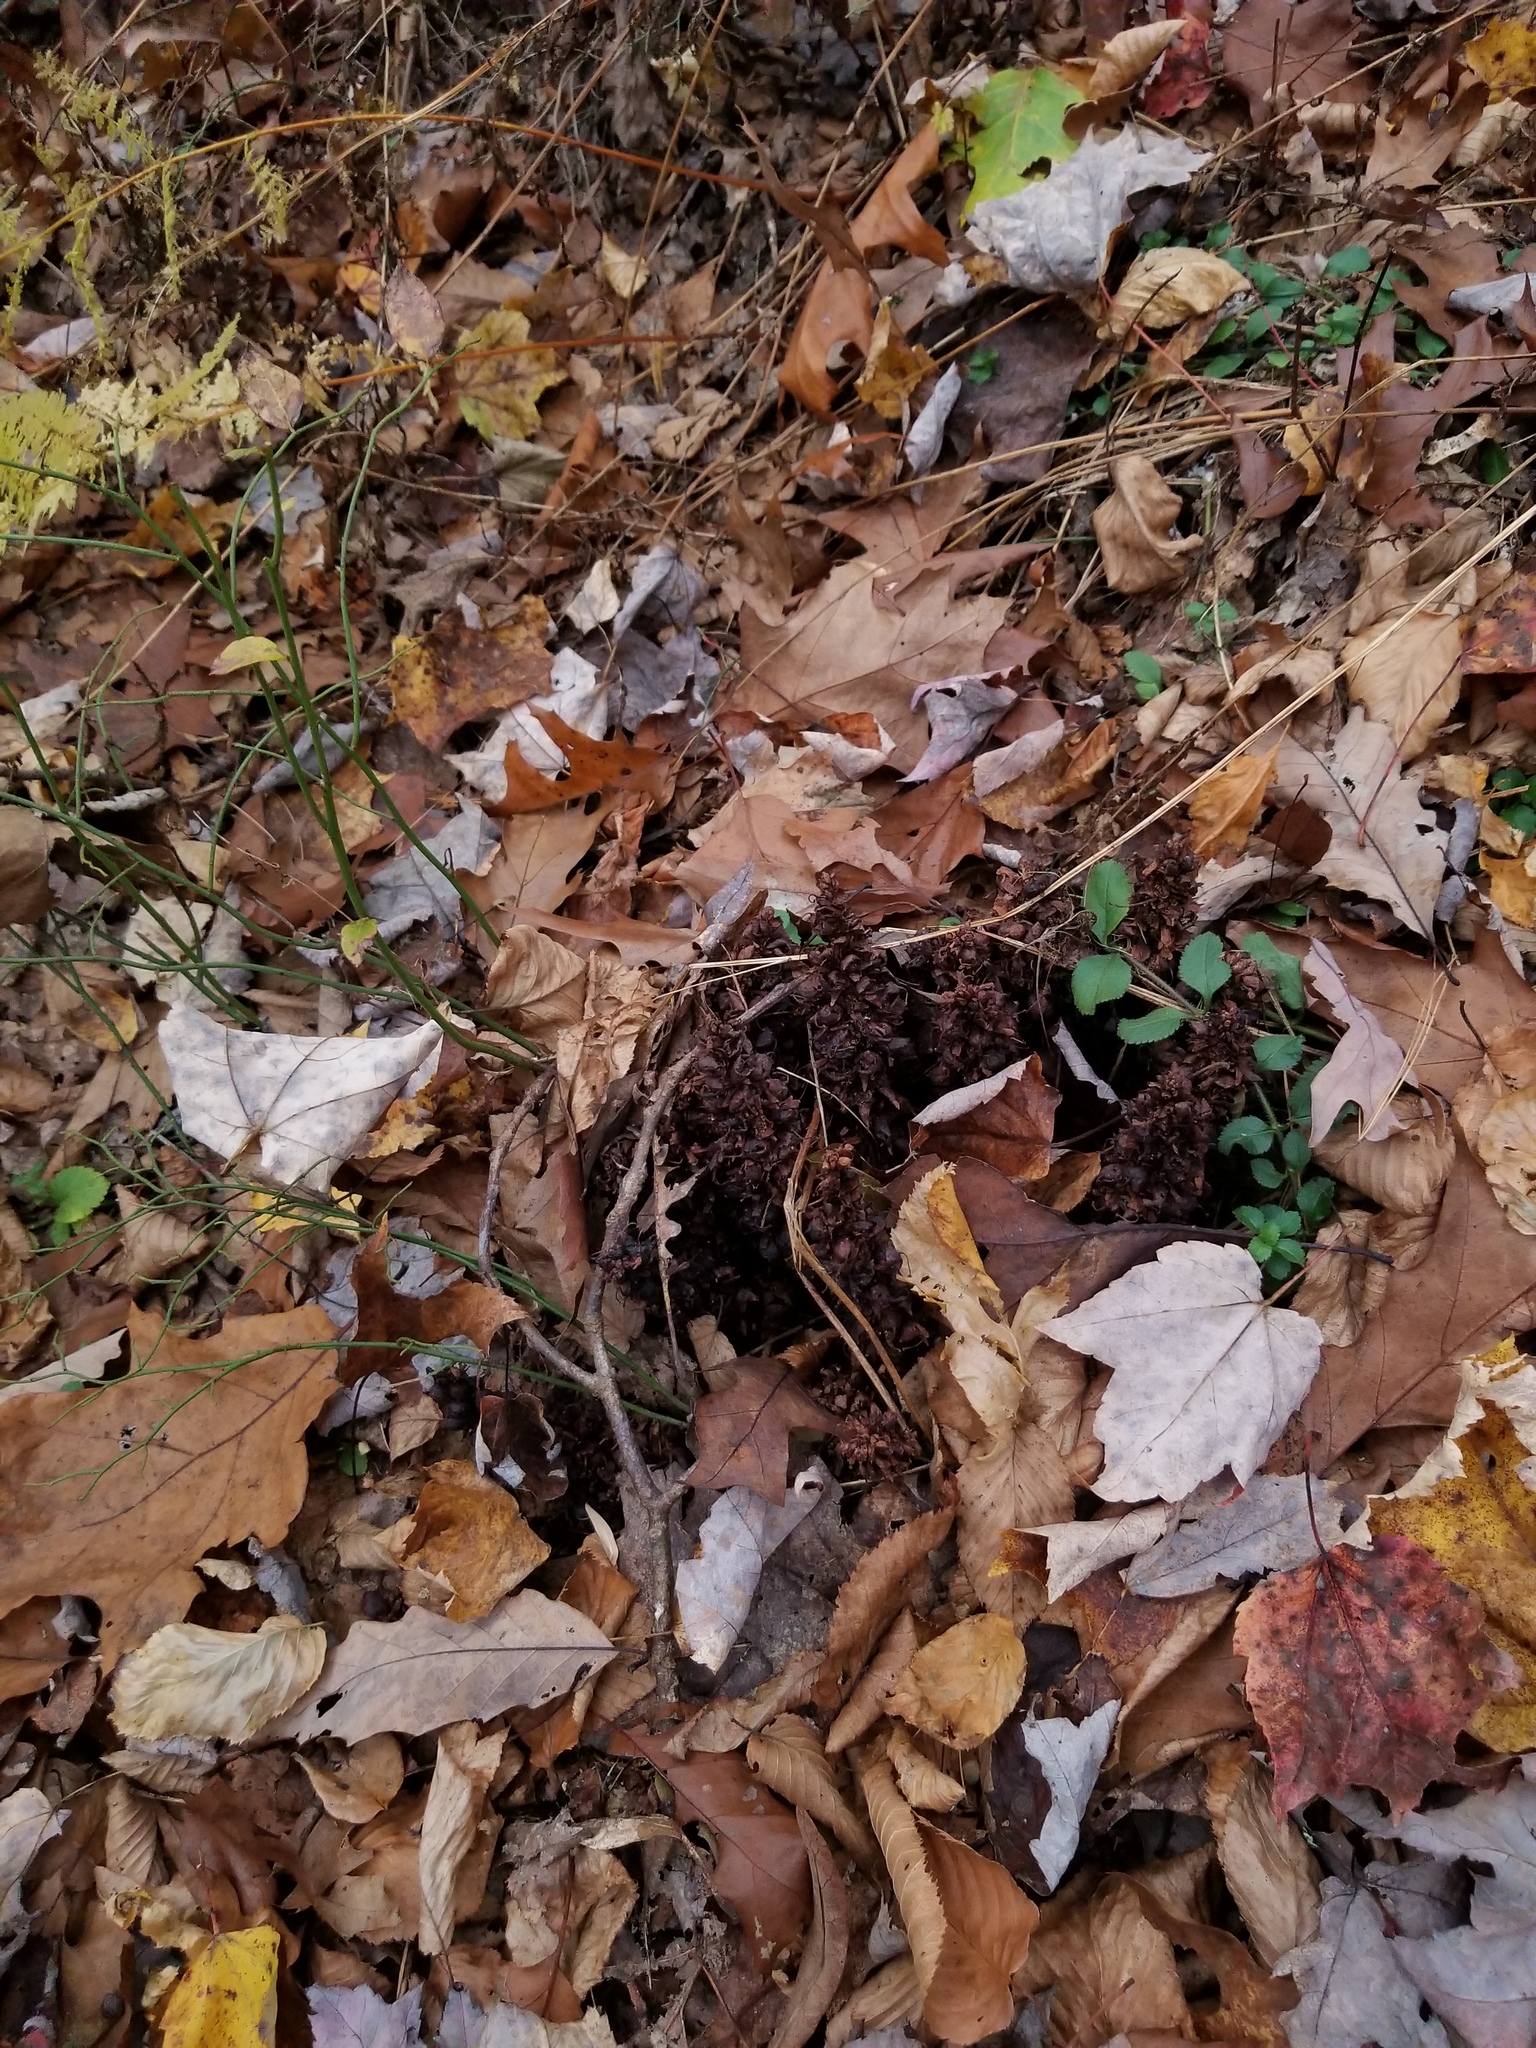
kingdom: Plantae
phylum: Tracheophyta
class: Magnoliopsida
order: Lamiales
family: Orobanchaceae
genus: Conopholis
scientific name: Conopholis americana
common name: American cancer-root
